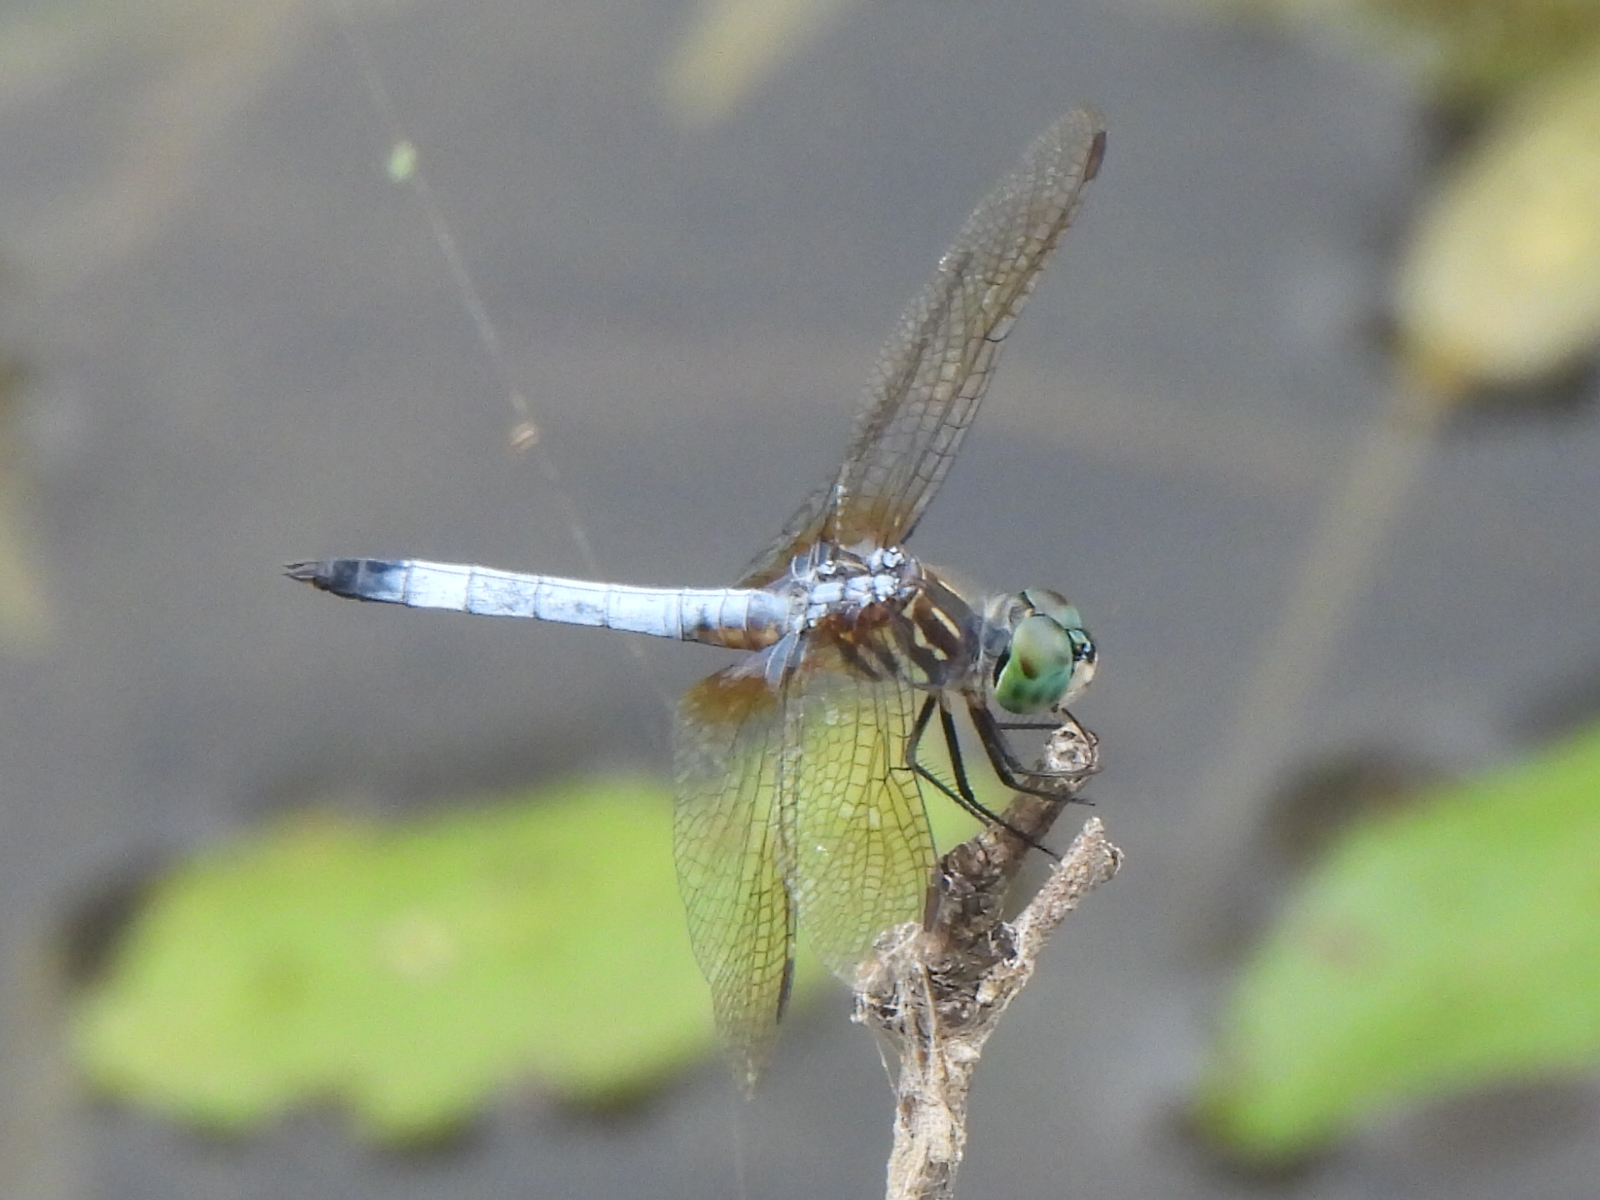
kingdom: Animalia
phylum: Arthropoda
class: Insecta
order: Odonata
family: Libellulidae
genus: Pachydiplax
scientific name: Pachydiplax longipennis
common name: Blue dasher
